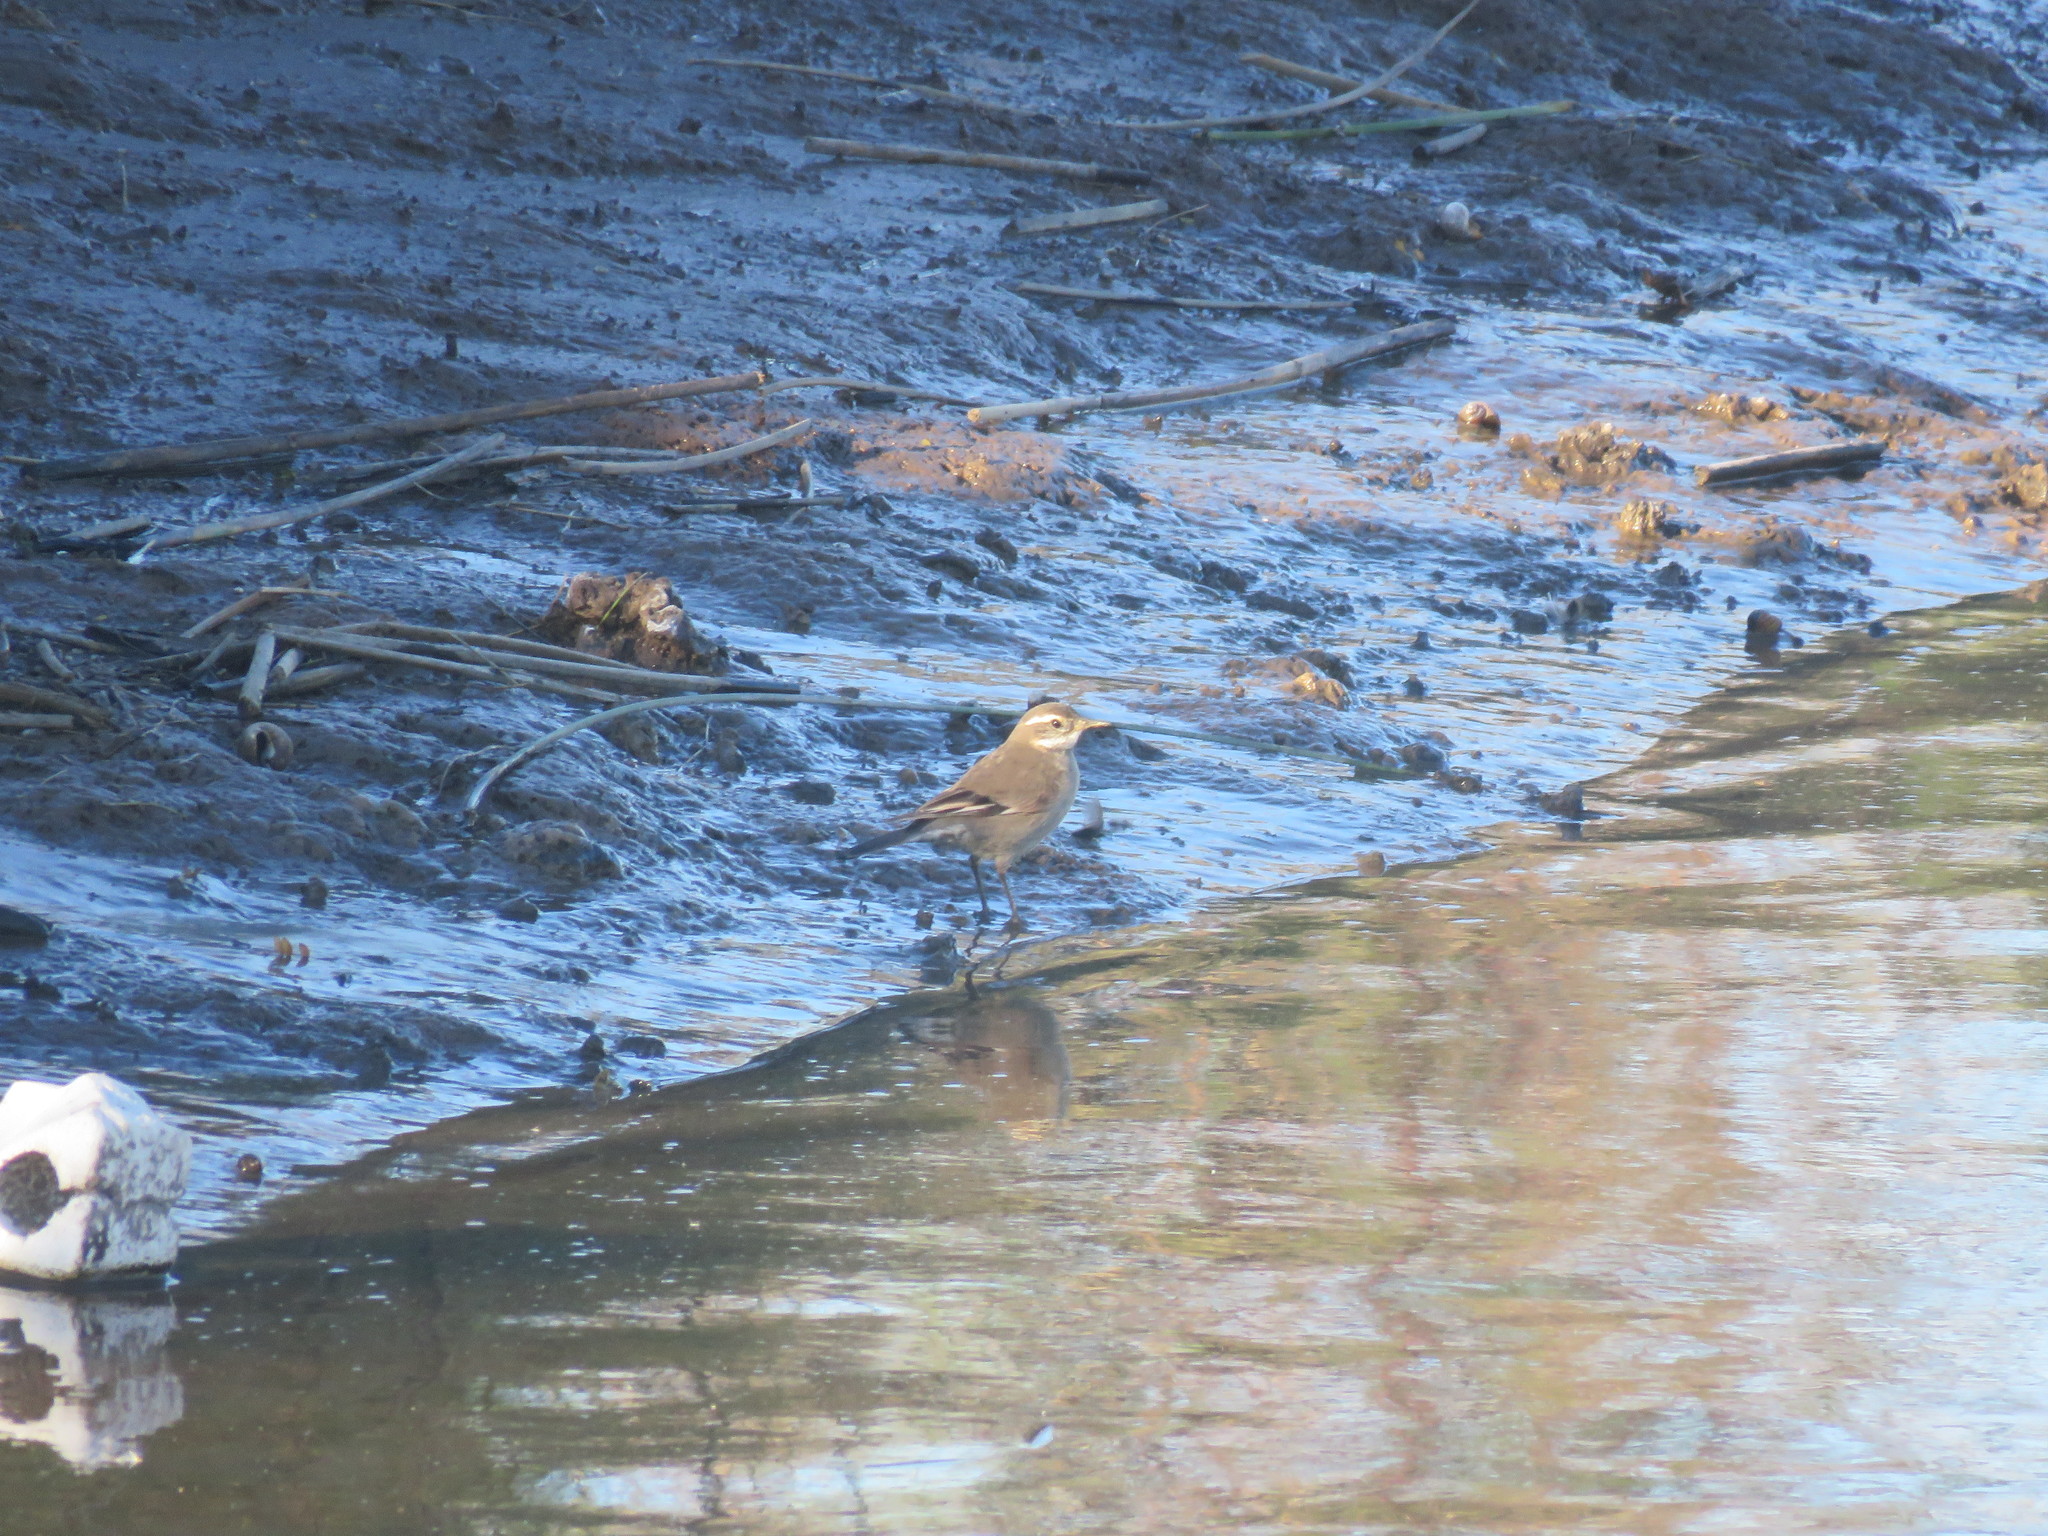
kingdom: Animalia
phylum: Chordata
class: Aves
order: Passeriformes
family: Furnariidae
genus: Cinclodes
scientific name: Cinclodes fuscus
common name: Buff-winged cinclodes
